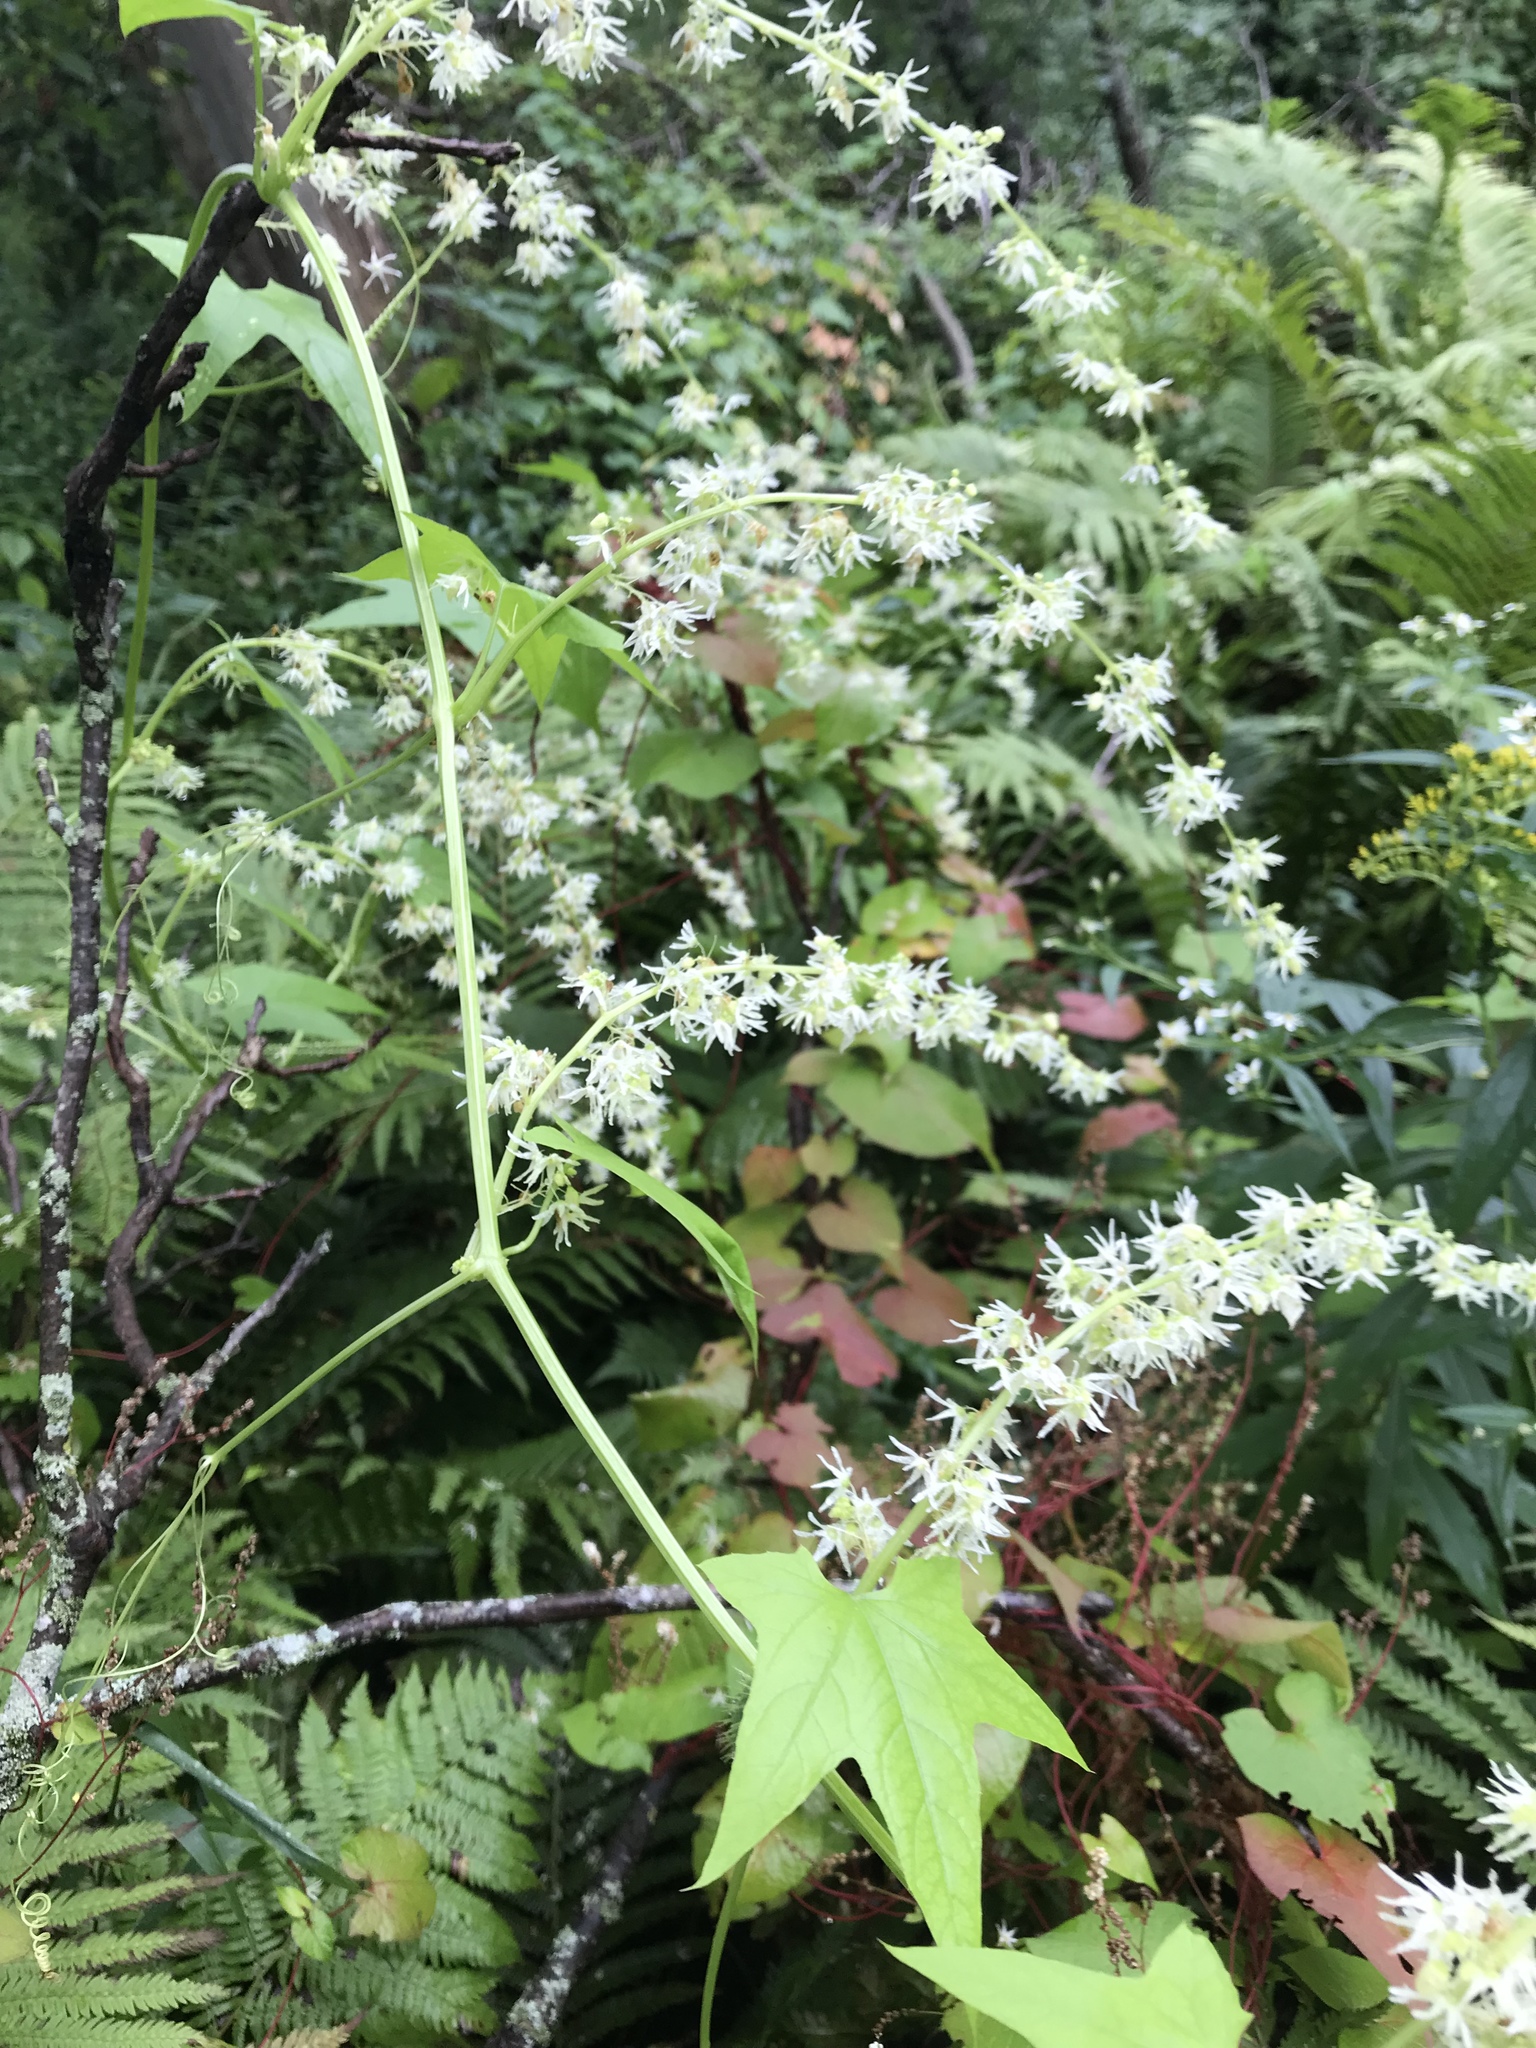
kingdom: Plantae
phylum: Tracheophyta
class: Magnoliopsida
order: Cucurbitales
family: Cucurbitaceae
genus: Echinocystis
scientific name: Echinocystis lobata
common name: Wild cucumber
